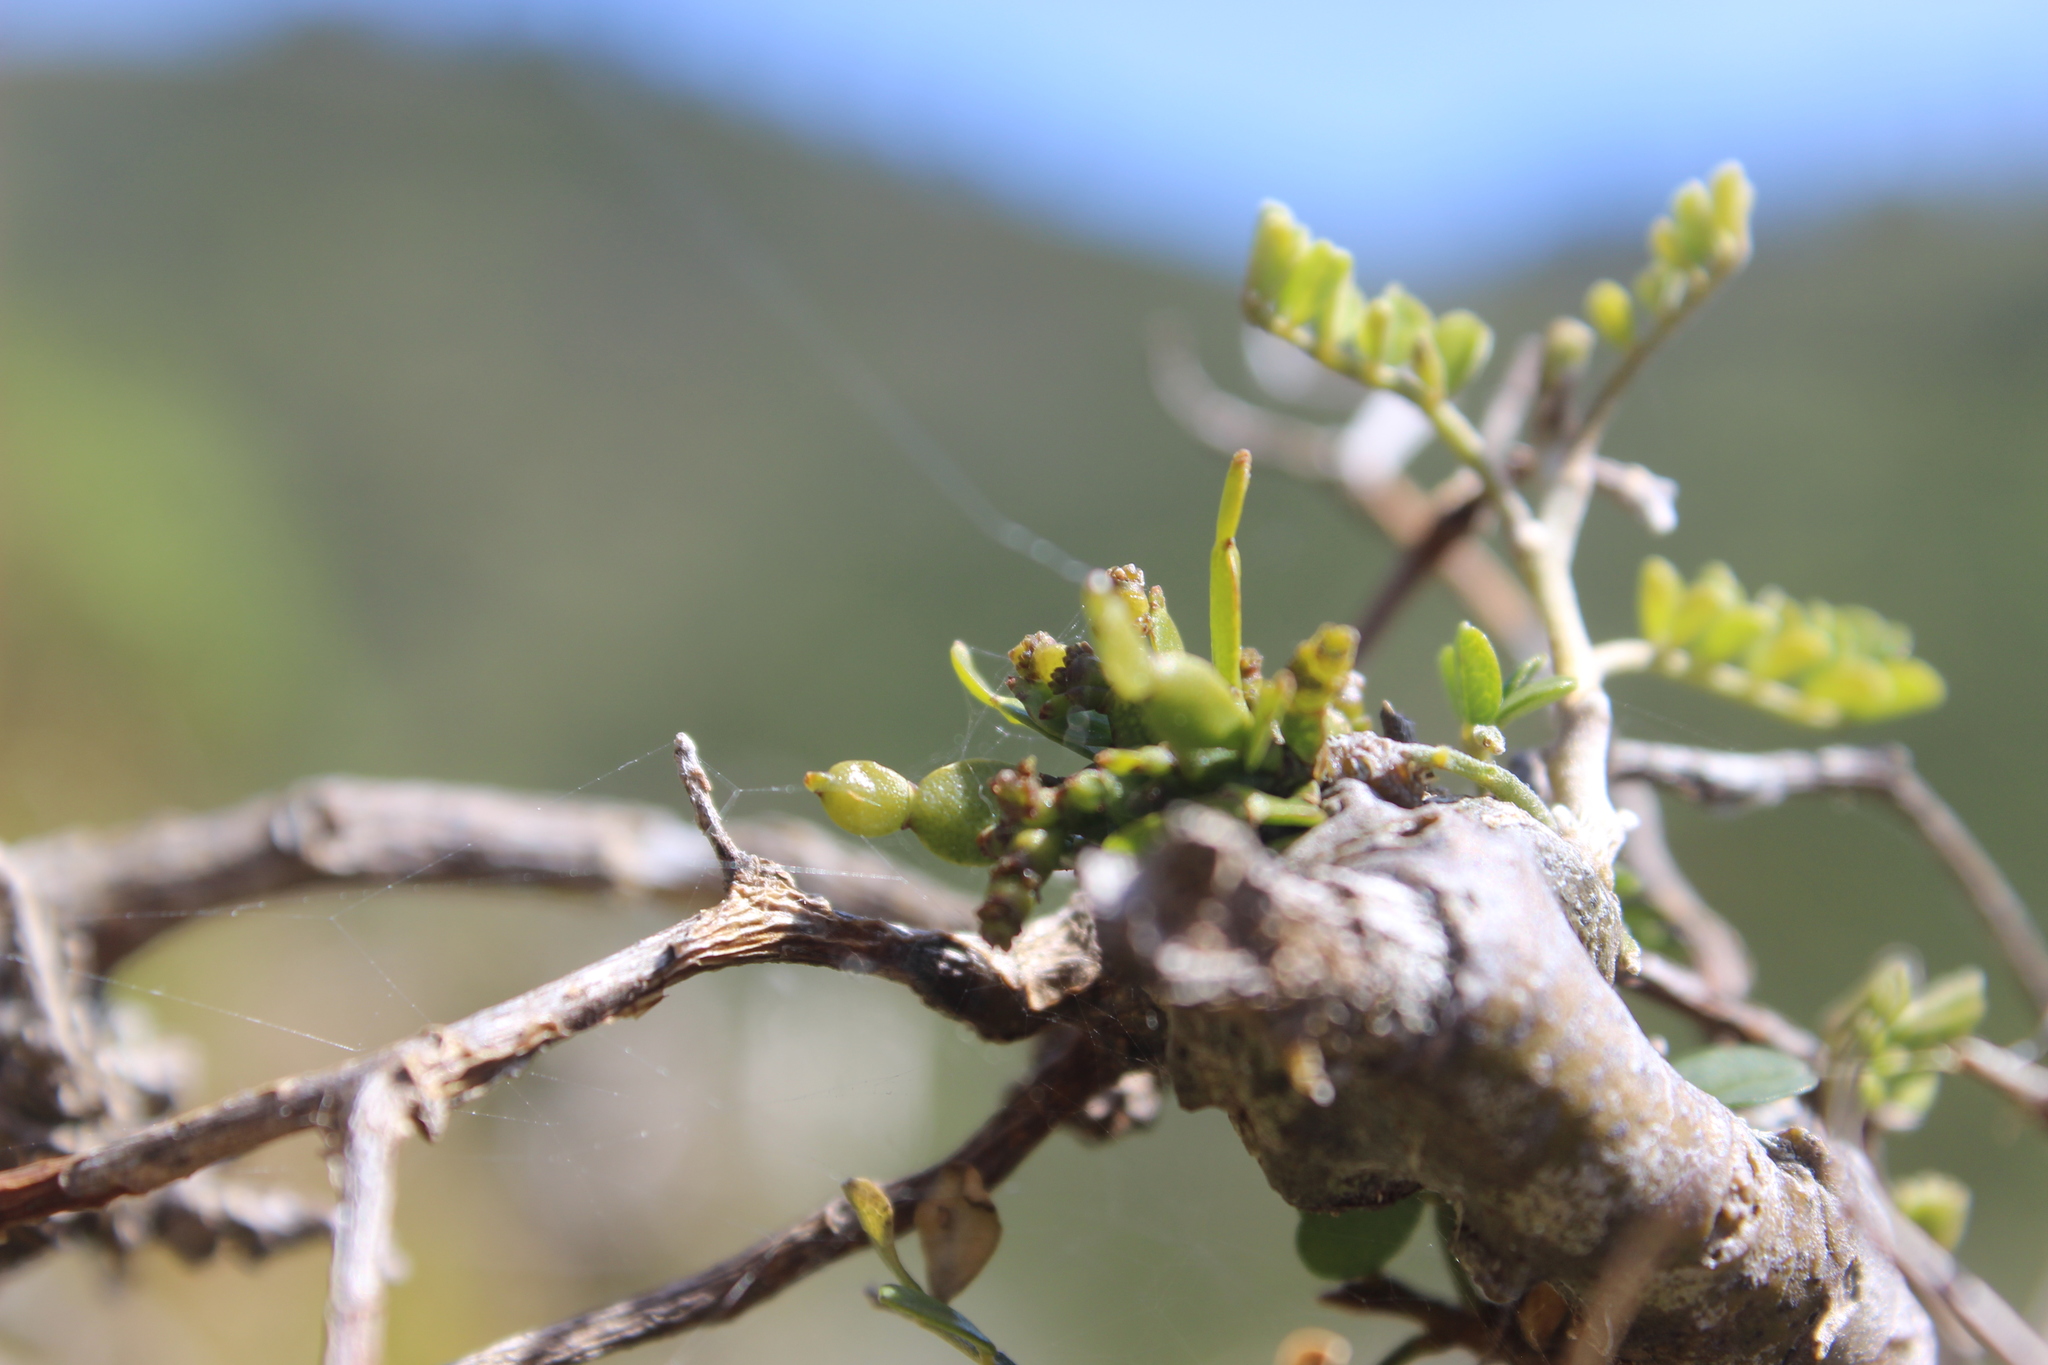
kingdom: Plantae
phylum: Tracheophyta
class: Magnoliopsida
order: Santalales
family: Viscaceae
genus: Korthalsella
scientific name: Korthalsella lindsayi
